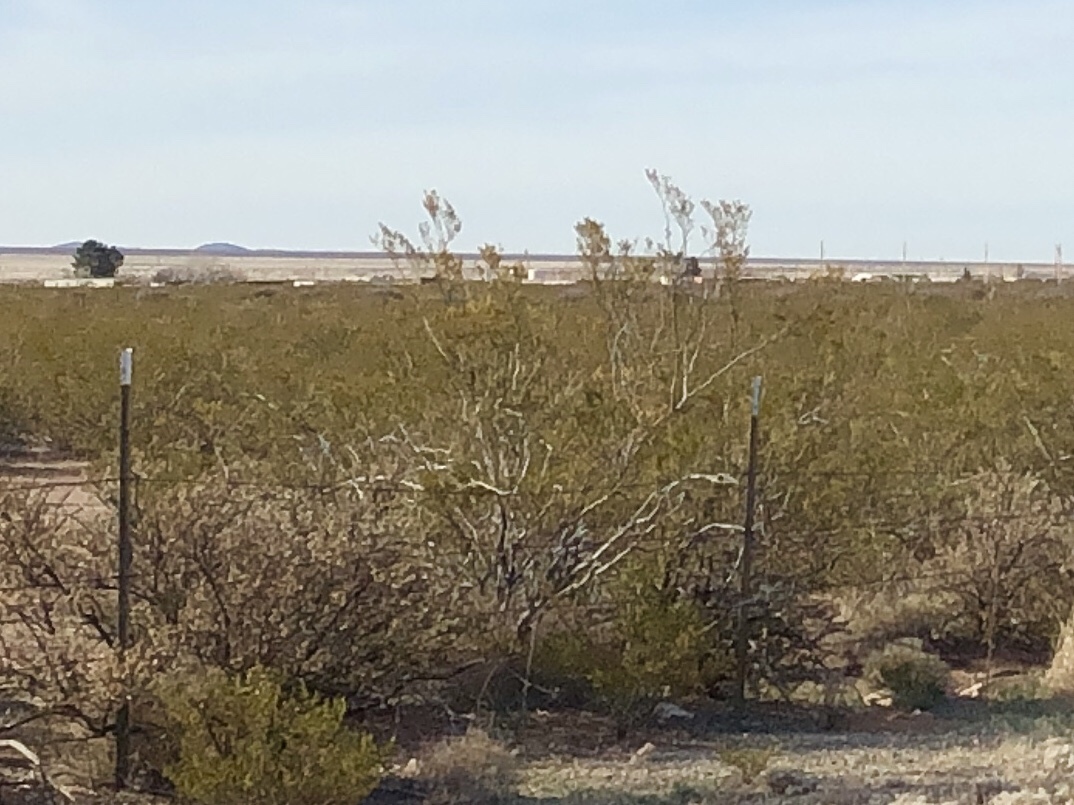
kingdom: Plantae
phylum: Tracheophyta
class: Magnoliopsida
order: Zygophyllales
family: Zygophyllaceae
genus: Larrea
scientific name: Larrea tridentata
